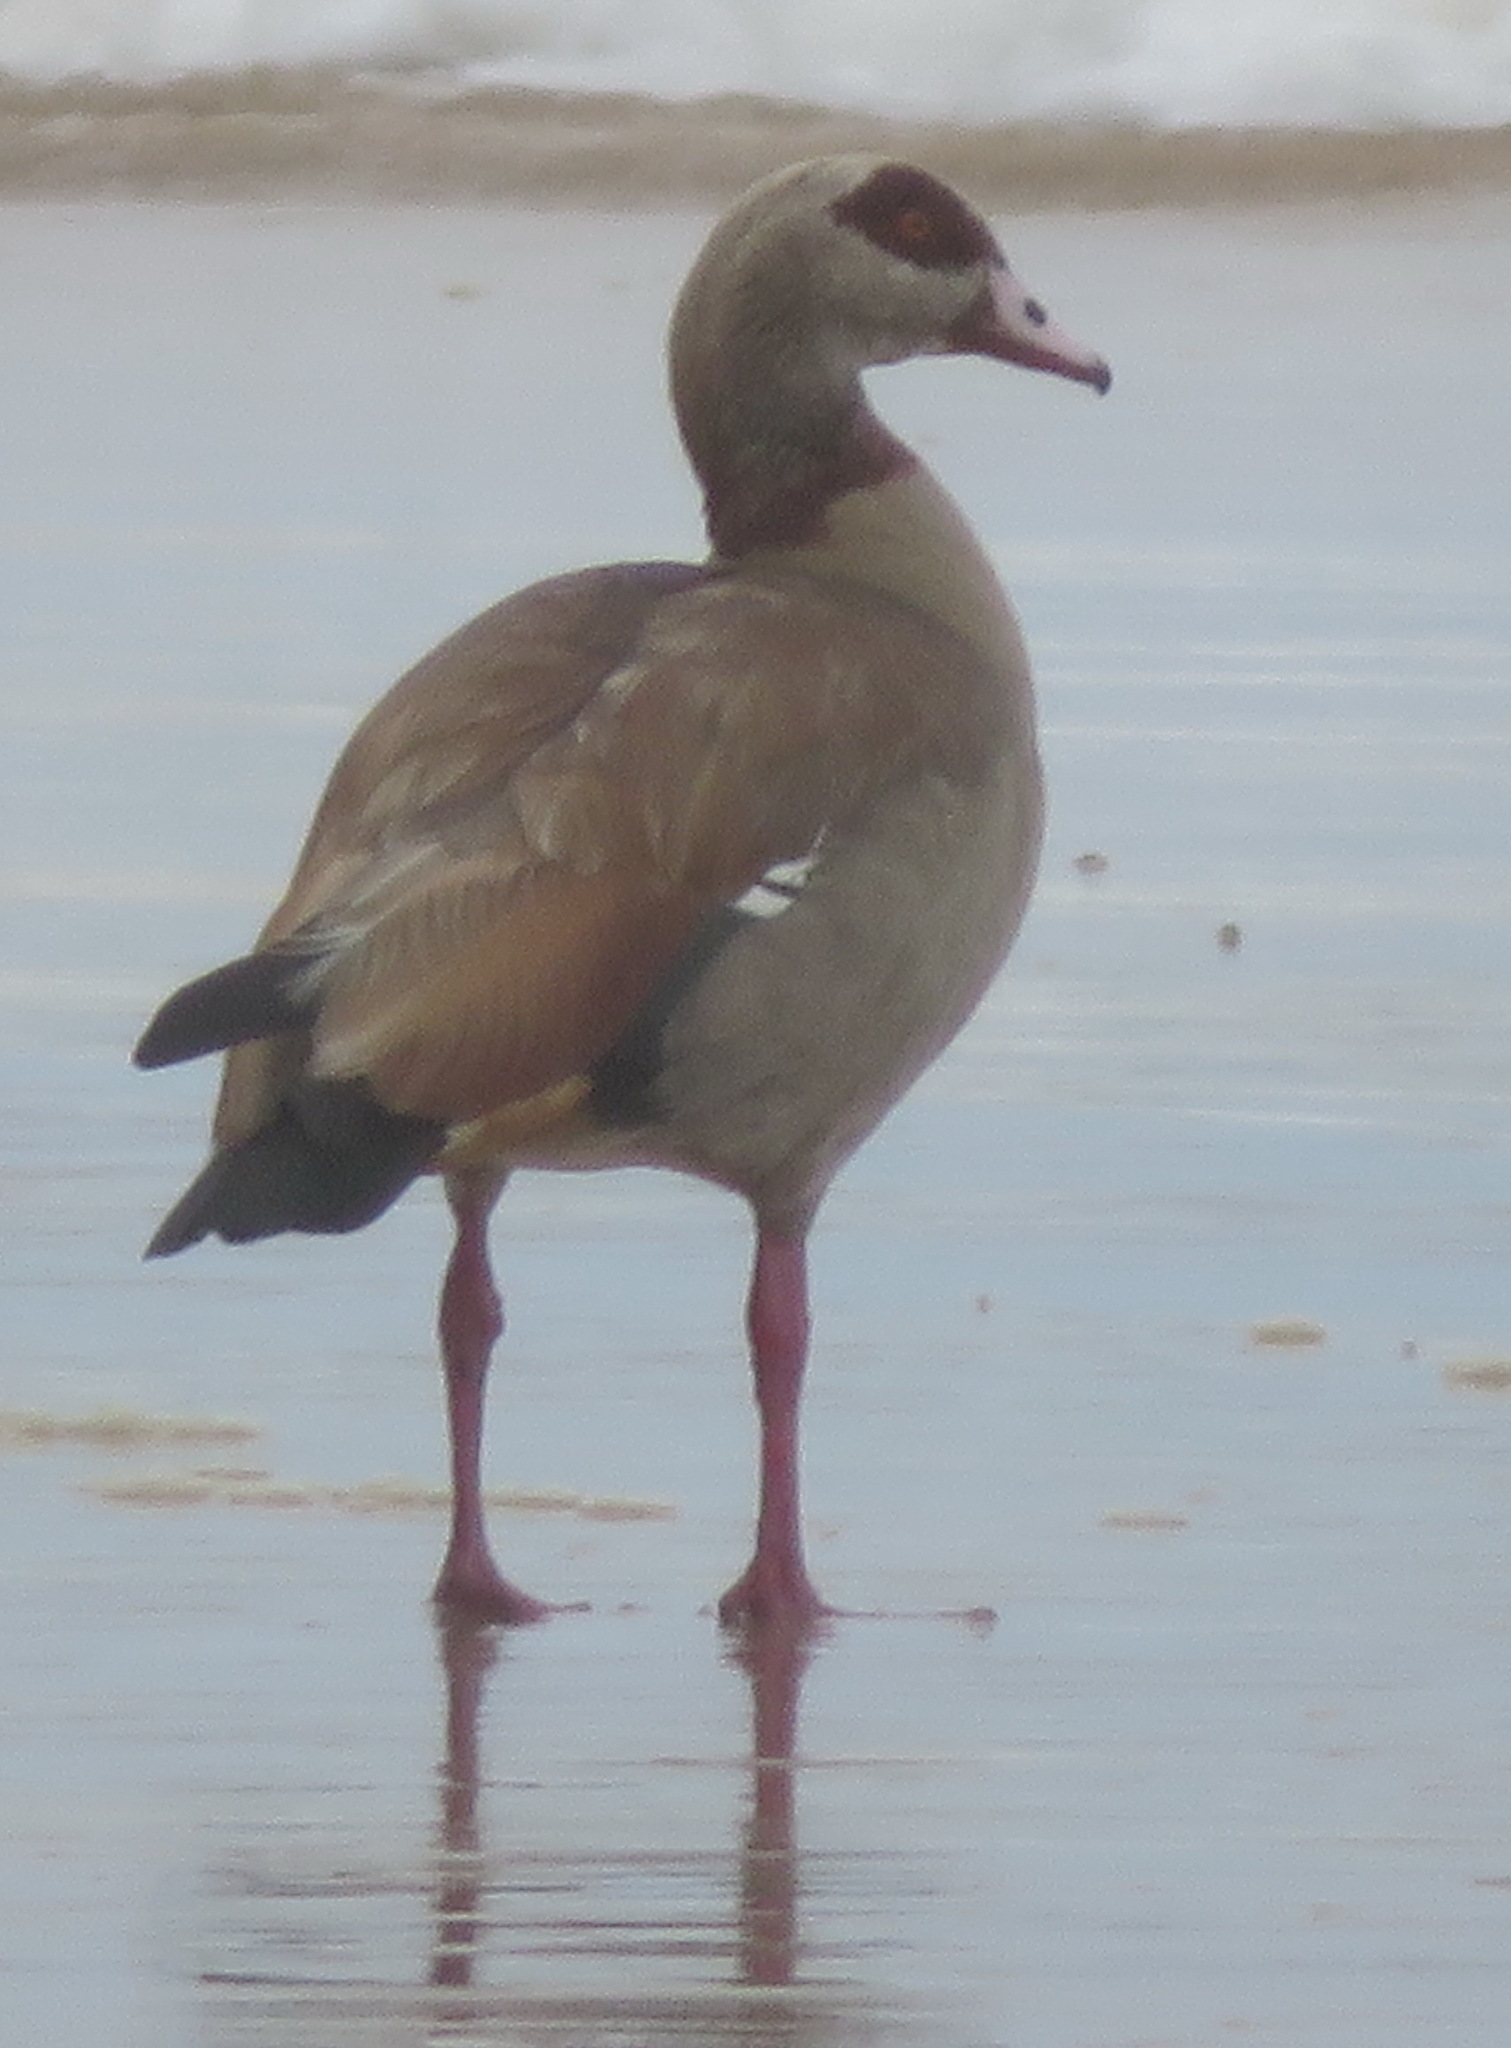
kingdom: Animalia
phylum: Chordata
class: Aves
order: Anseriformes
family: Anatidae
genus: Alopochen
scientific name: Alopochen aegyptiaca
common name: Egyptian goose
